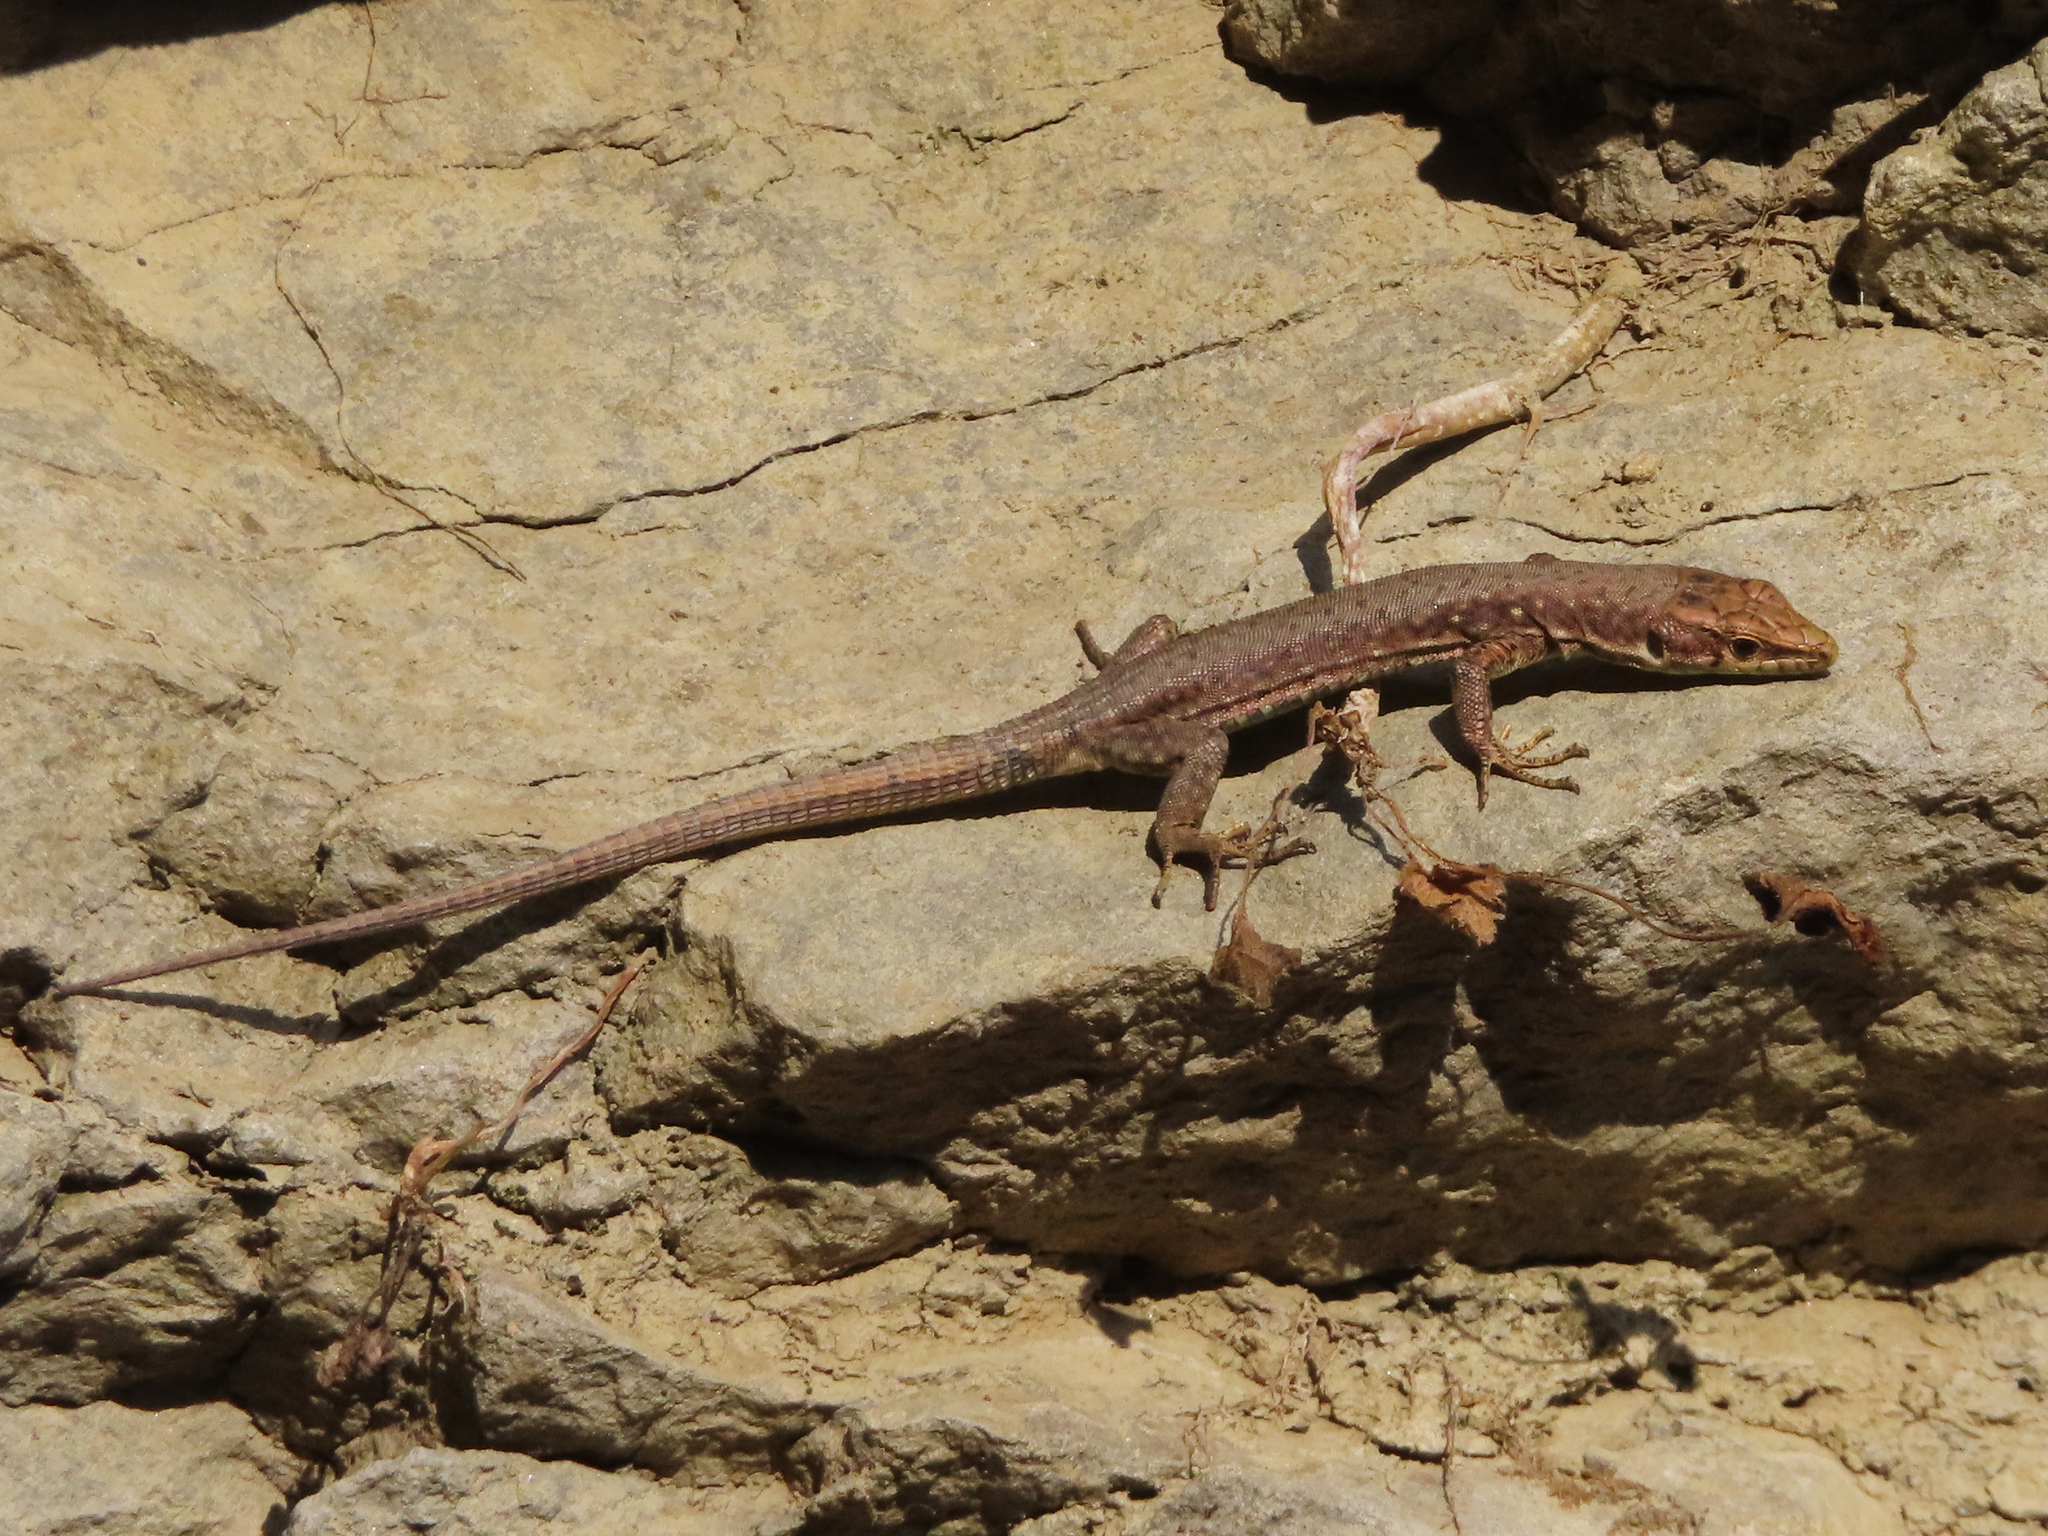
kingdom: Animalia
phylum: Chordata
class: Squamata
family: Lacertidae
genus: Darevskia
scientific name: Darevskia bithynica
